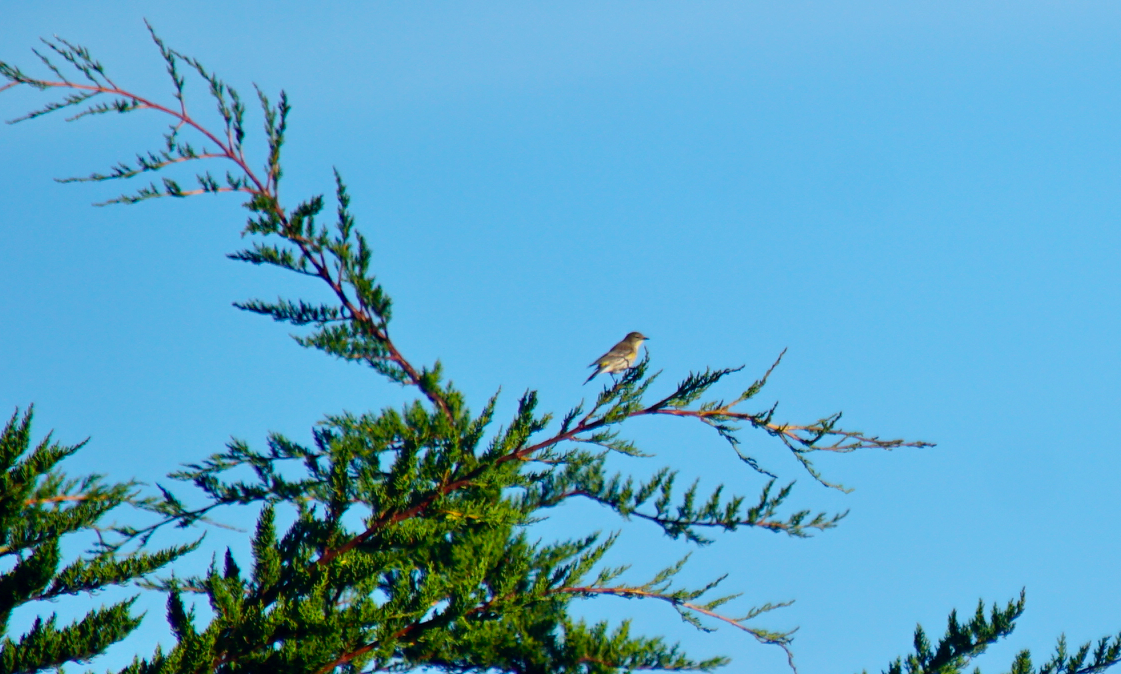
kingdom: Animalia
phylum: Chordata
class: Aves
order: Passeriformes
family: Parulidae
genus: Setophaga
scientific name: Setophaga coronata
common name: Myrtle warbler
